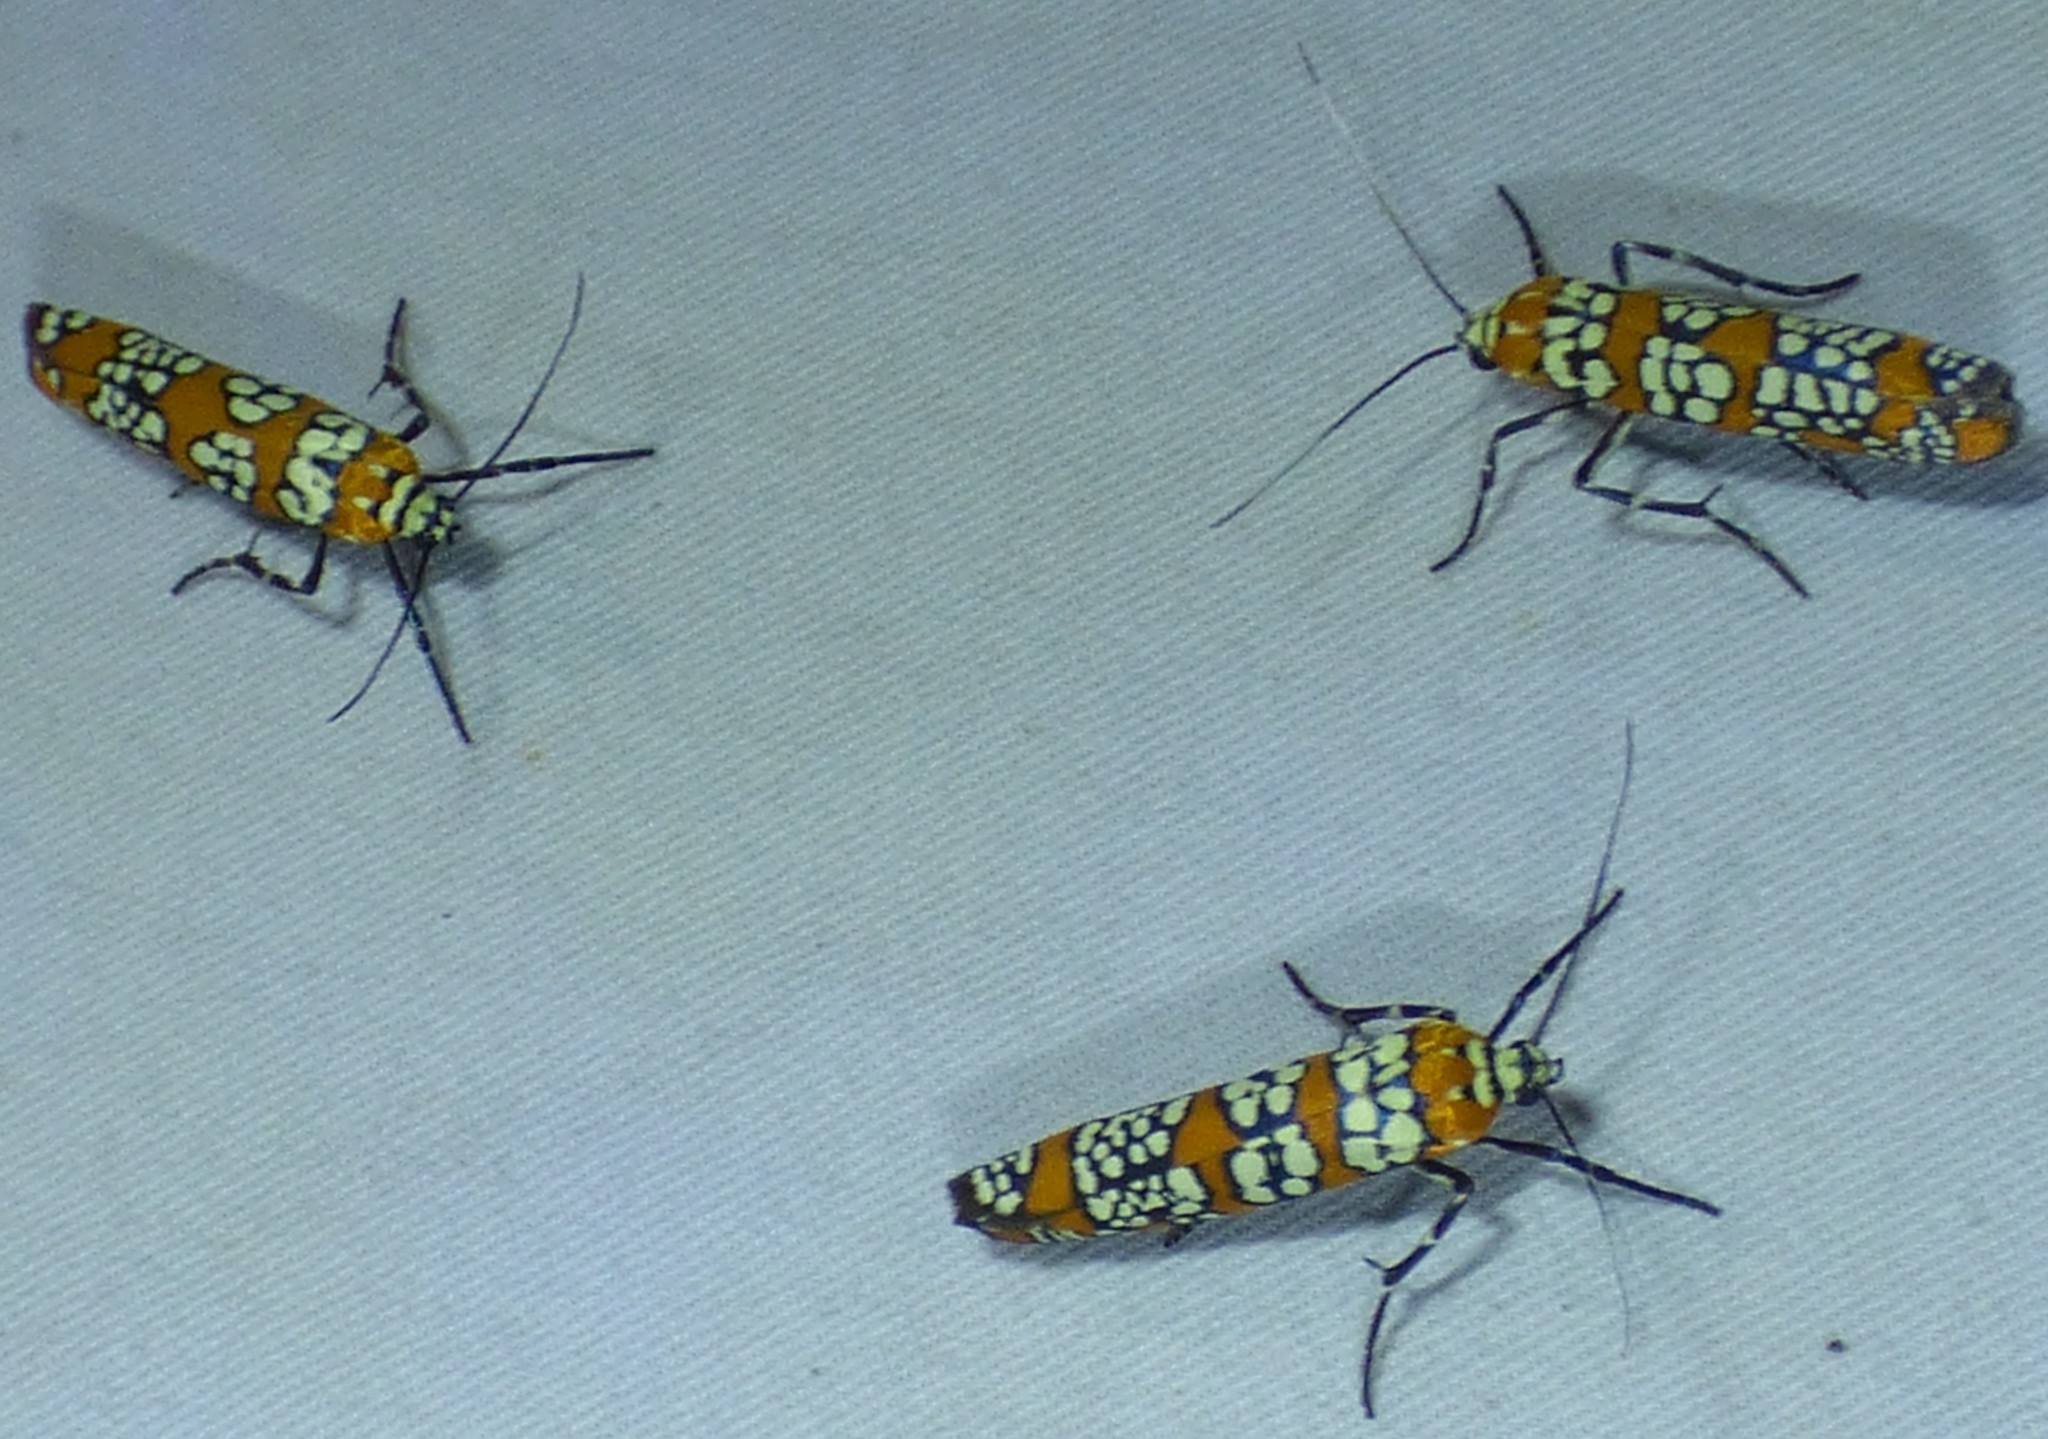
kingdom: Animalia
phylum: Arthropoda
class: Insecta
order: Lepidoptera
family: Attevidae
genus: Atteva
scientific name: Atteva punctella
